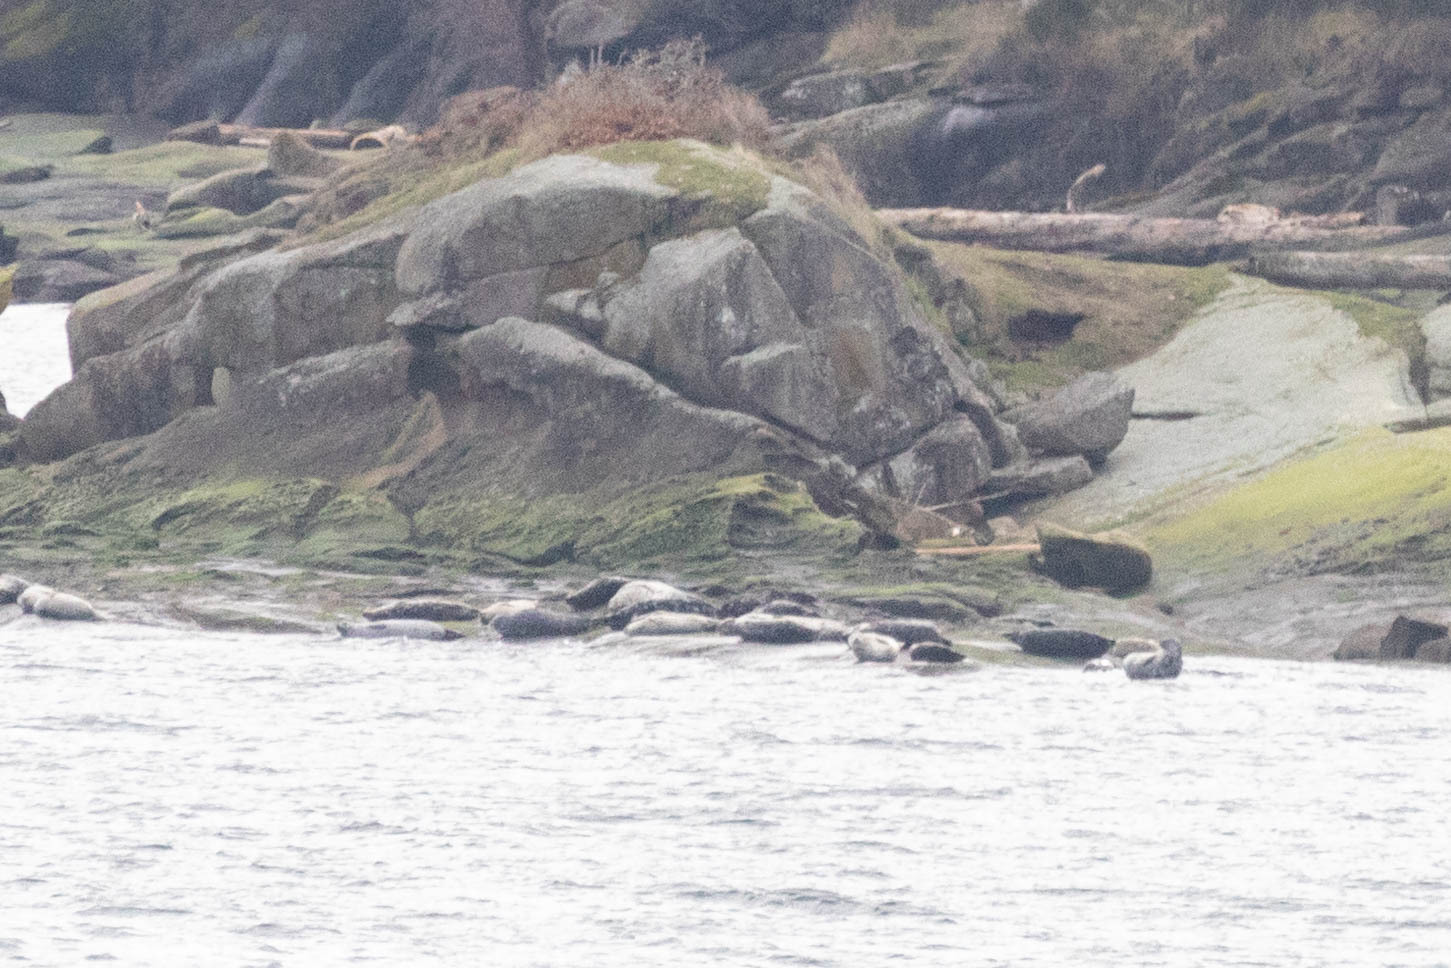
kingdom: Animalia
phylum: Chordata
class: Mammalia
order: Carnivora
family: Phocidae
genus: Phoca
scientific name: Phoca vitulina
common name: Harbor seal
